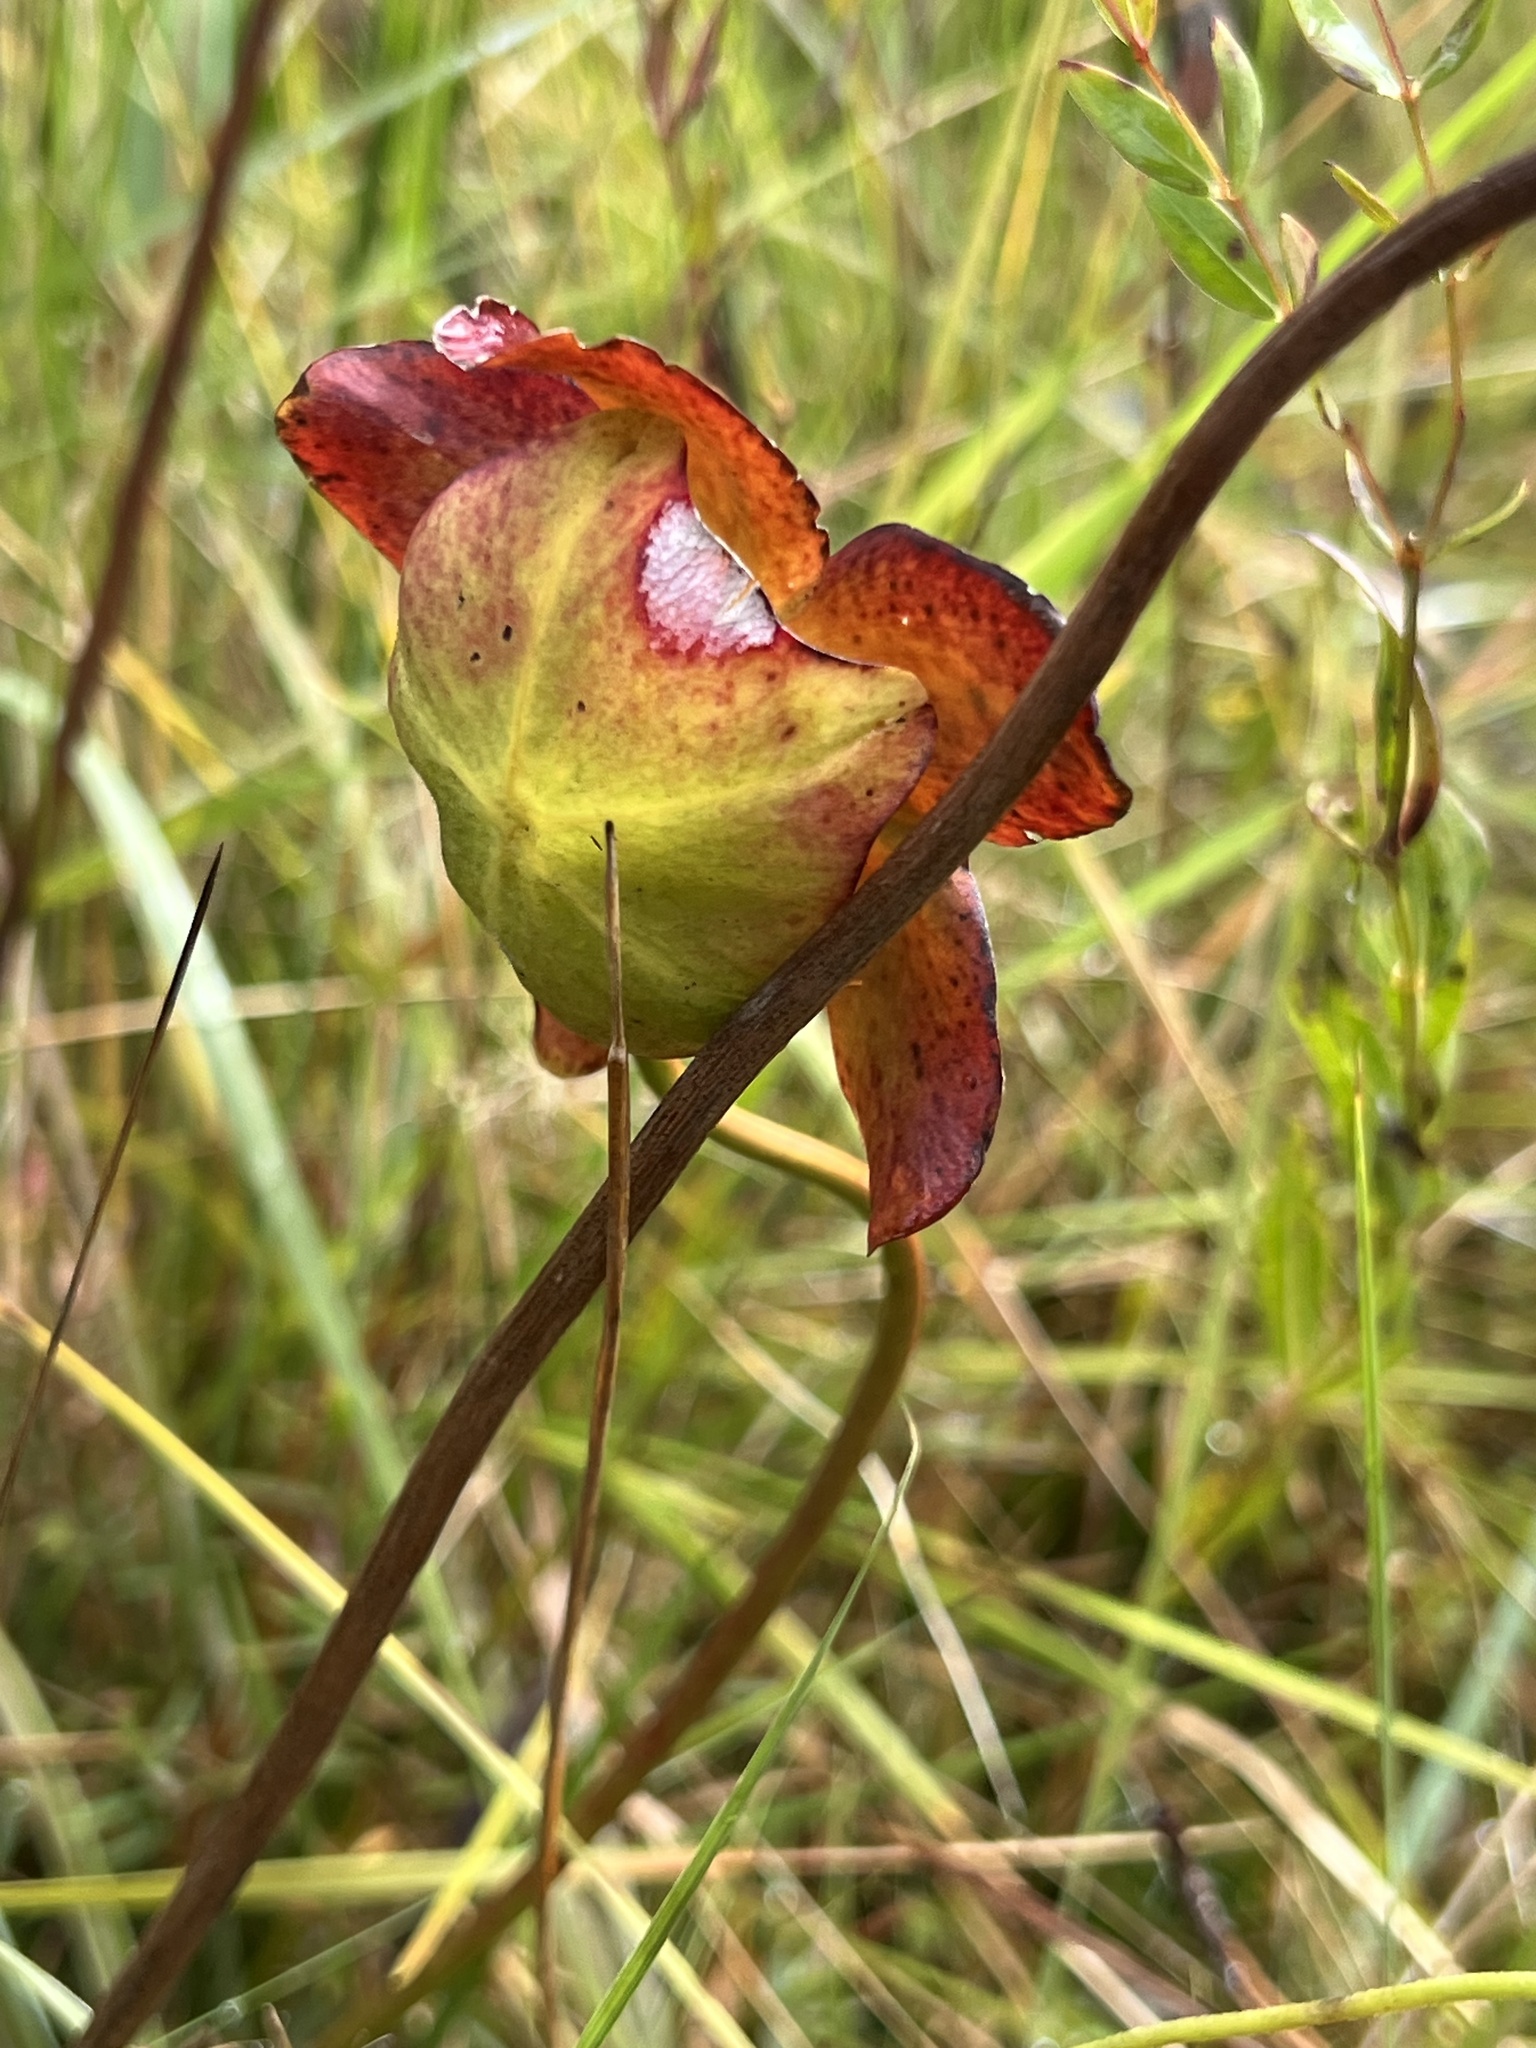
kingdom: Plantae
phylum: Tracheophyta
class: Magnoliopsida
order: Ericales
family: Sarraceniaceae
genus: Sarracenia
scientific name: Sarracenia purpurea
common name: Pitcherplant
